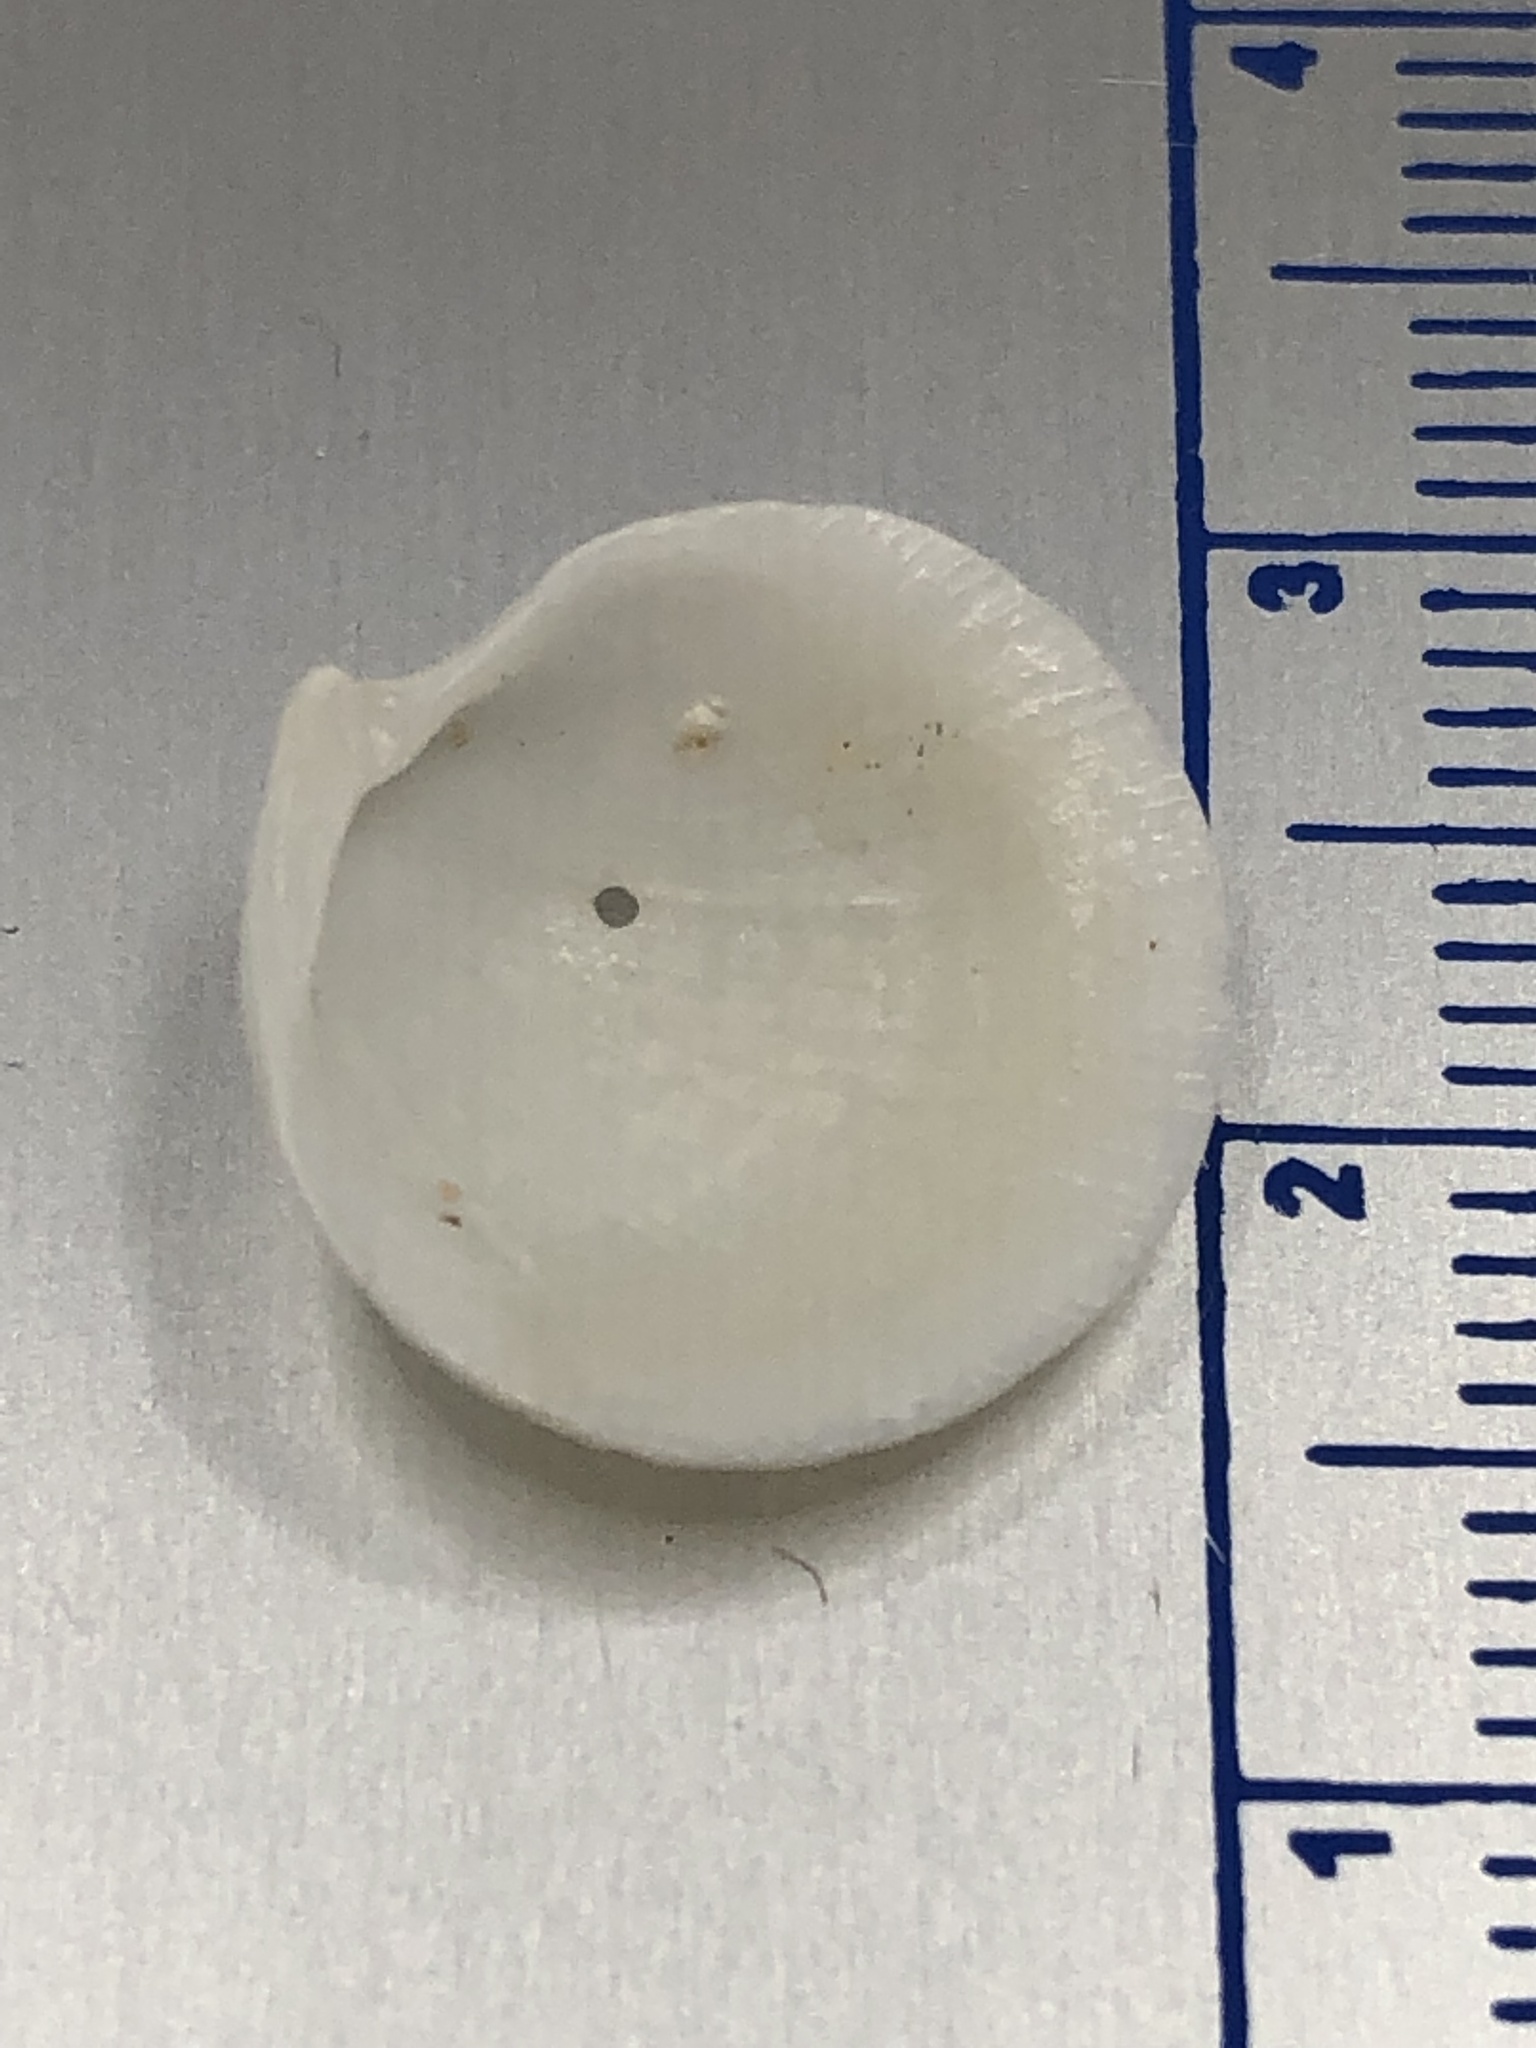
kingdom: Animalia
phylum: Mollusca
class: Bivalvia
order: Lucinida
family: Lucinidae
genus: Callucina
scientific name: Callucina keenae
